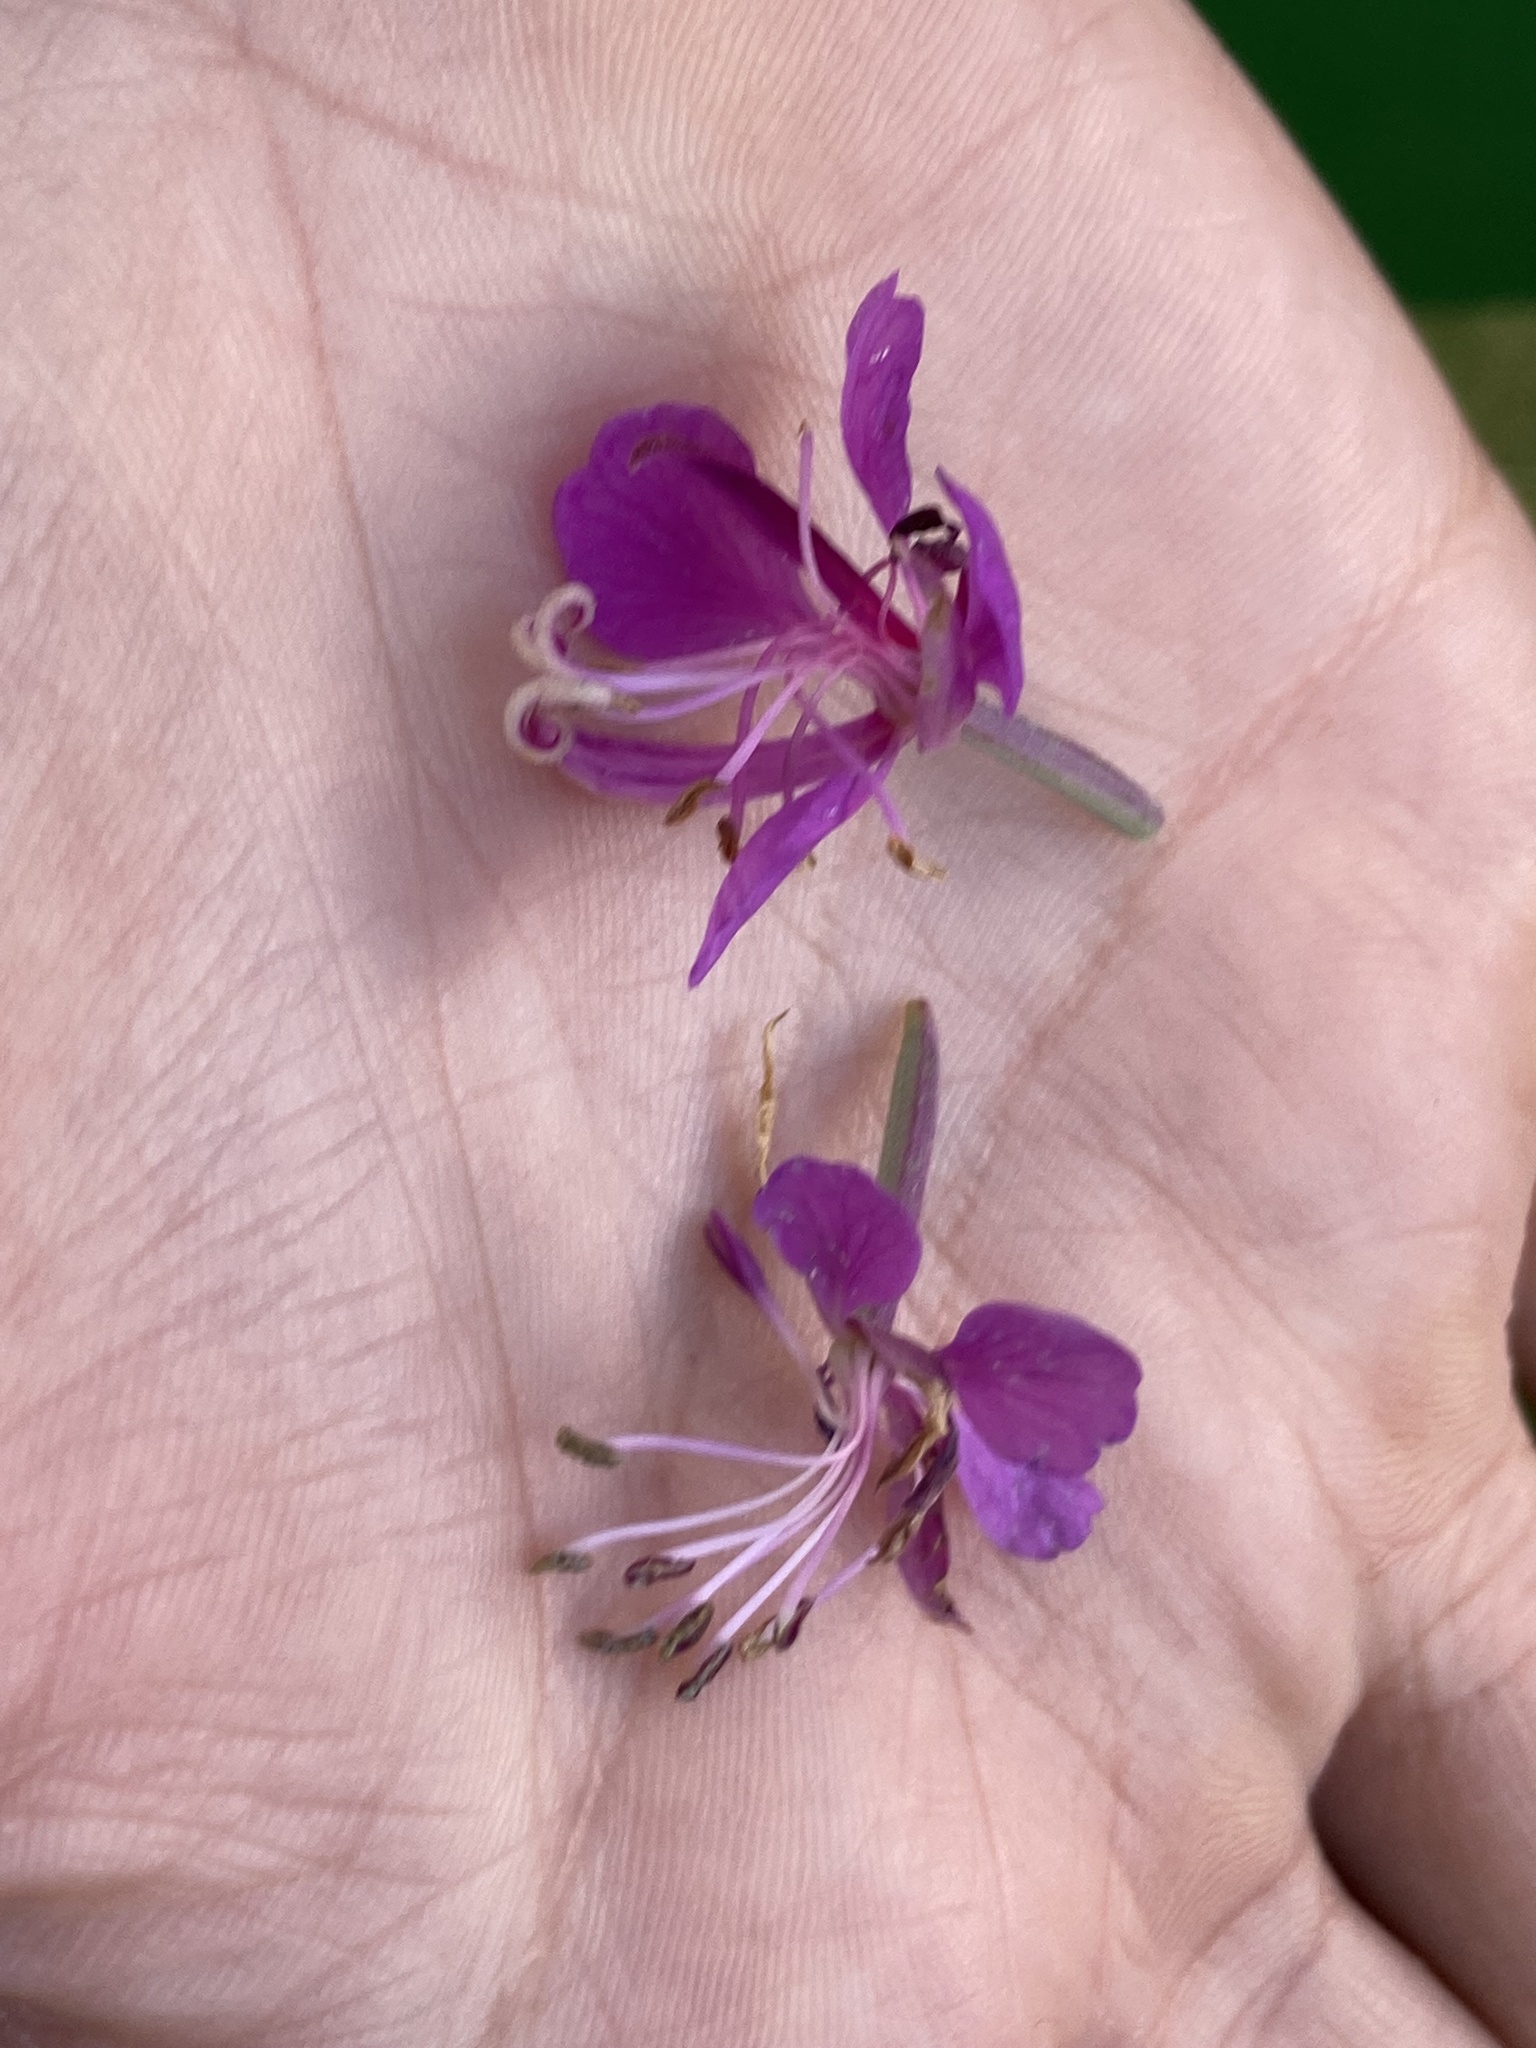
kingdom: Plantae
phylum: Tracheophyta
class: Magnoliopsida
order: Myrtales
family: Onagraceae
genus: Chamaenerion
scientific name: Chamaenerion angustifolium
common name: Fireweed
